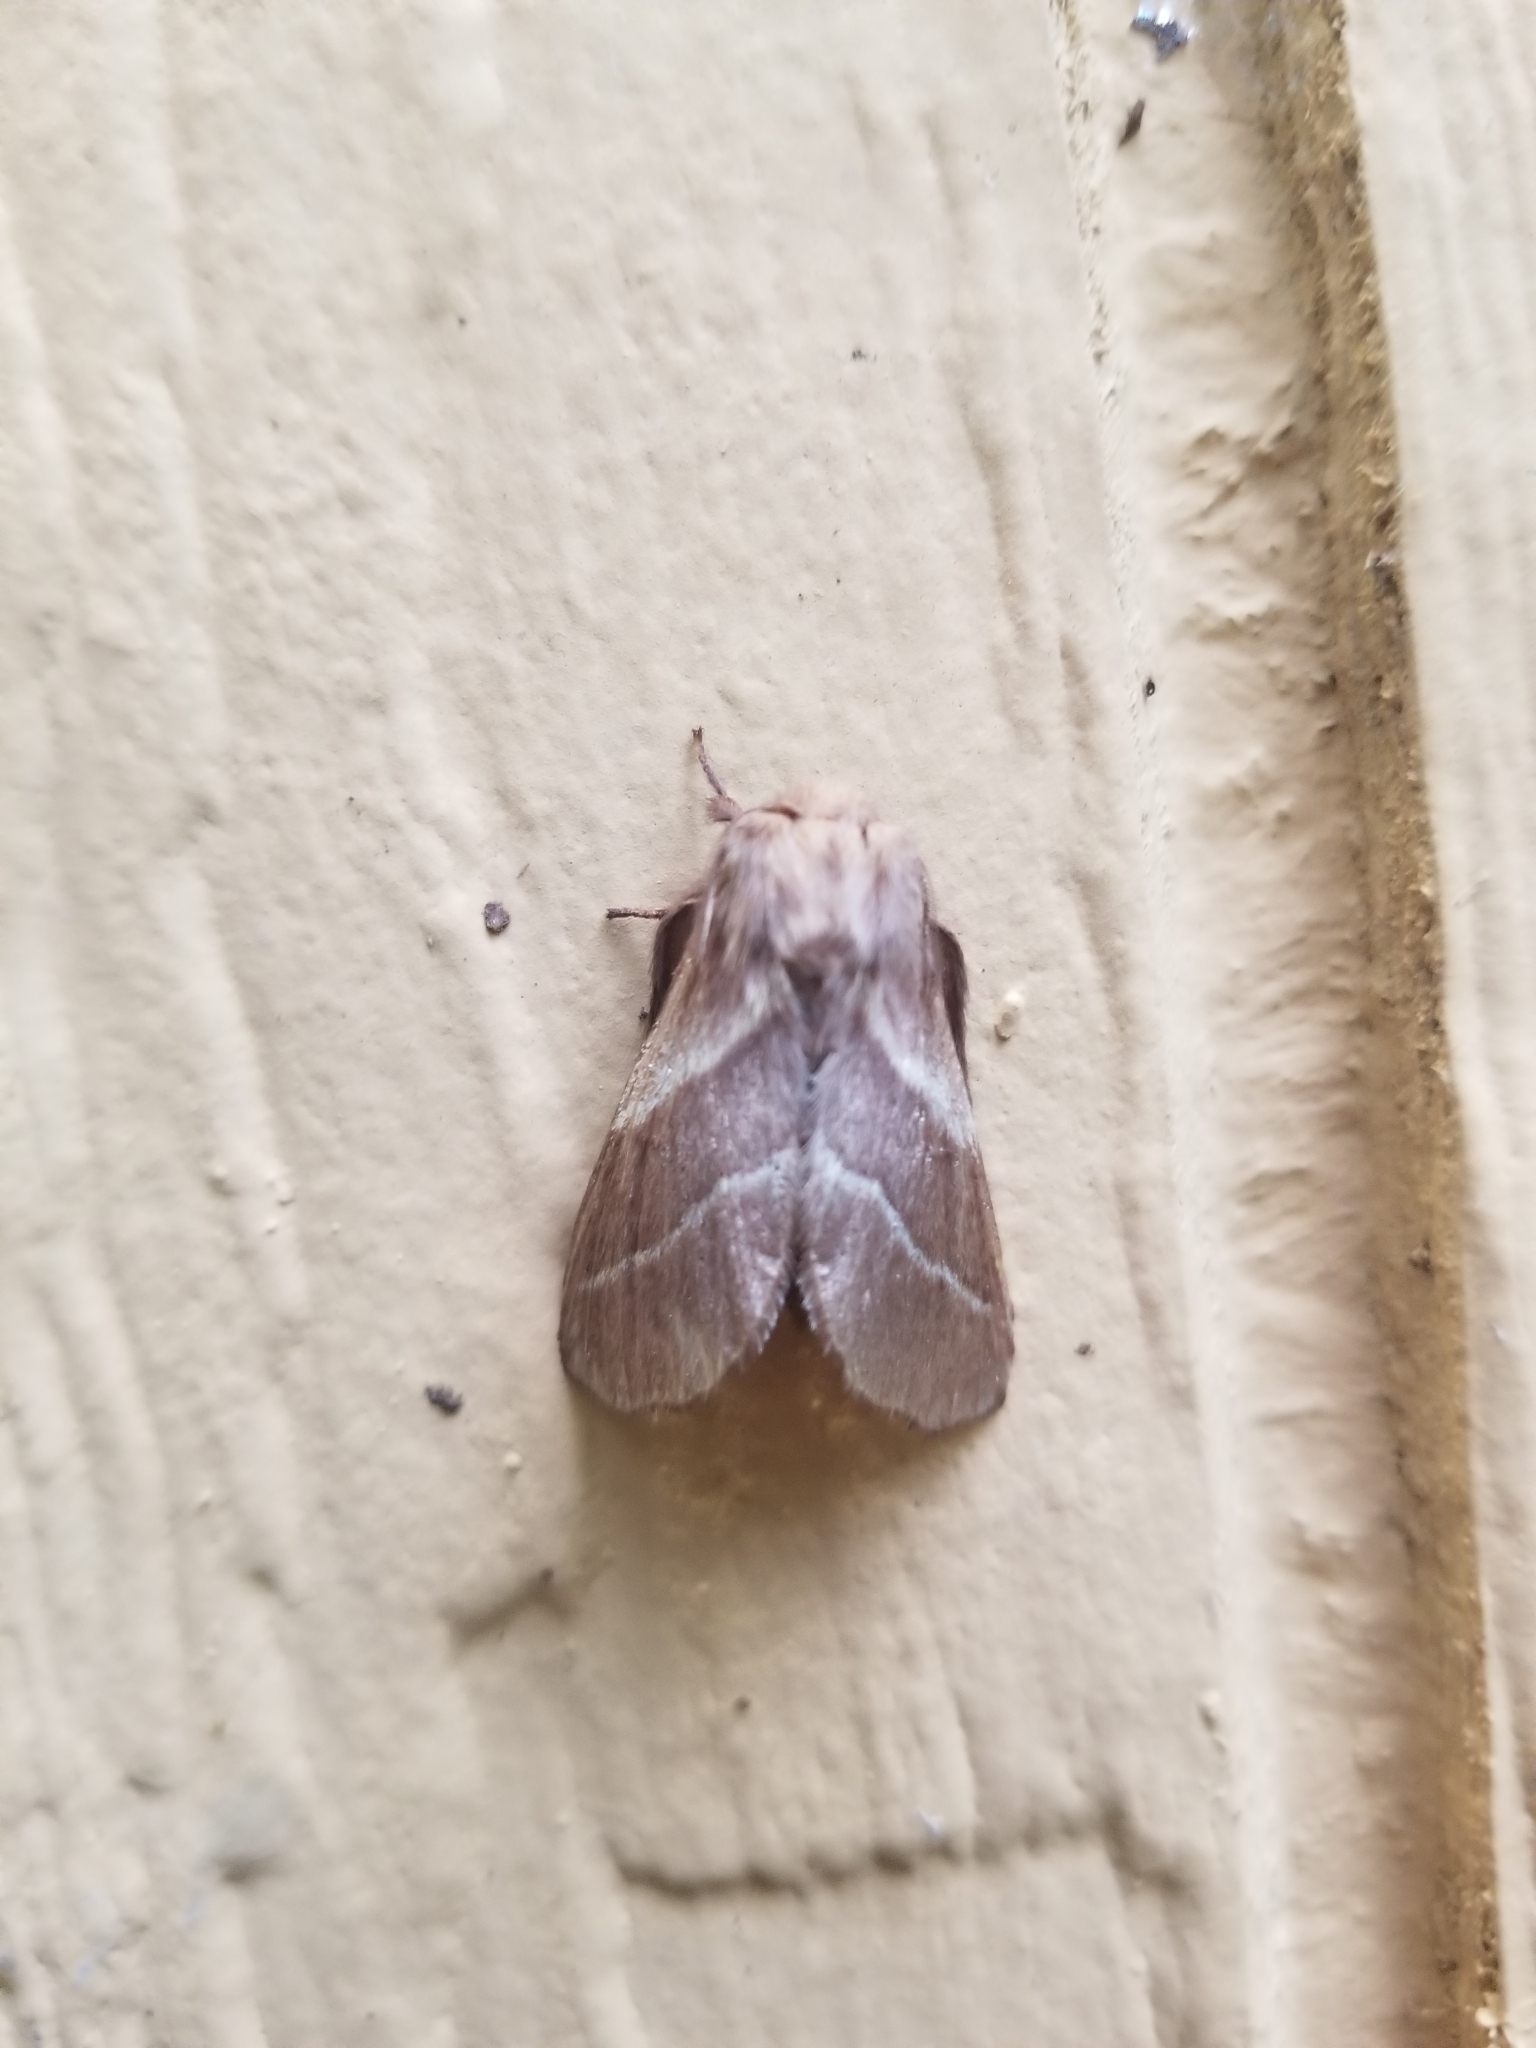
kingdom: Animalia
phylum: Arthropoda
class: Insecta
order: Lepidoptera
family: Lasiocampidae
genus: Malacosoma
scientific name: Malacosoma americana
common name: Eastern tent caterpillar moth
